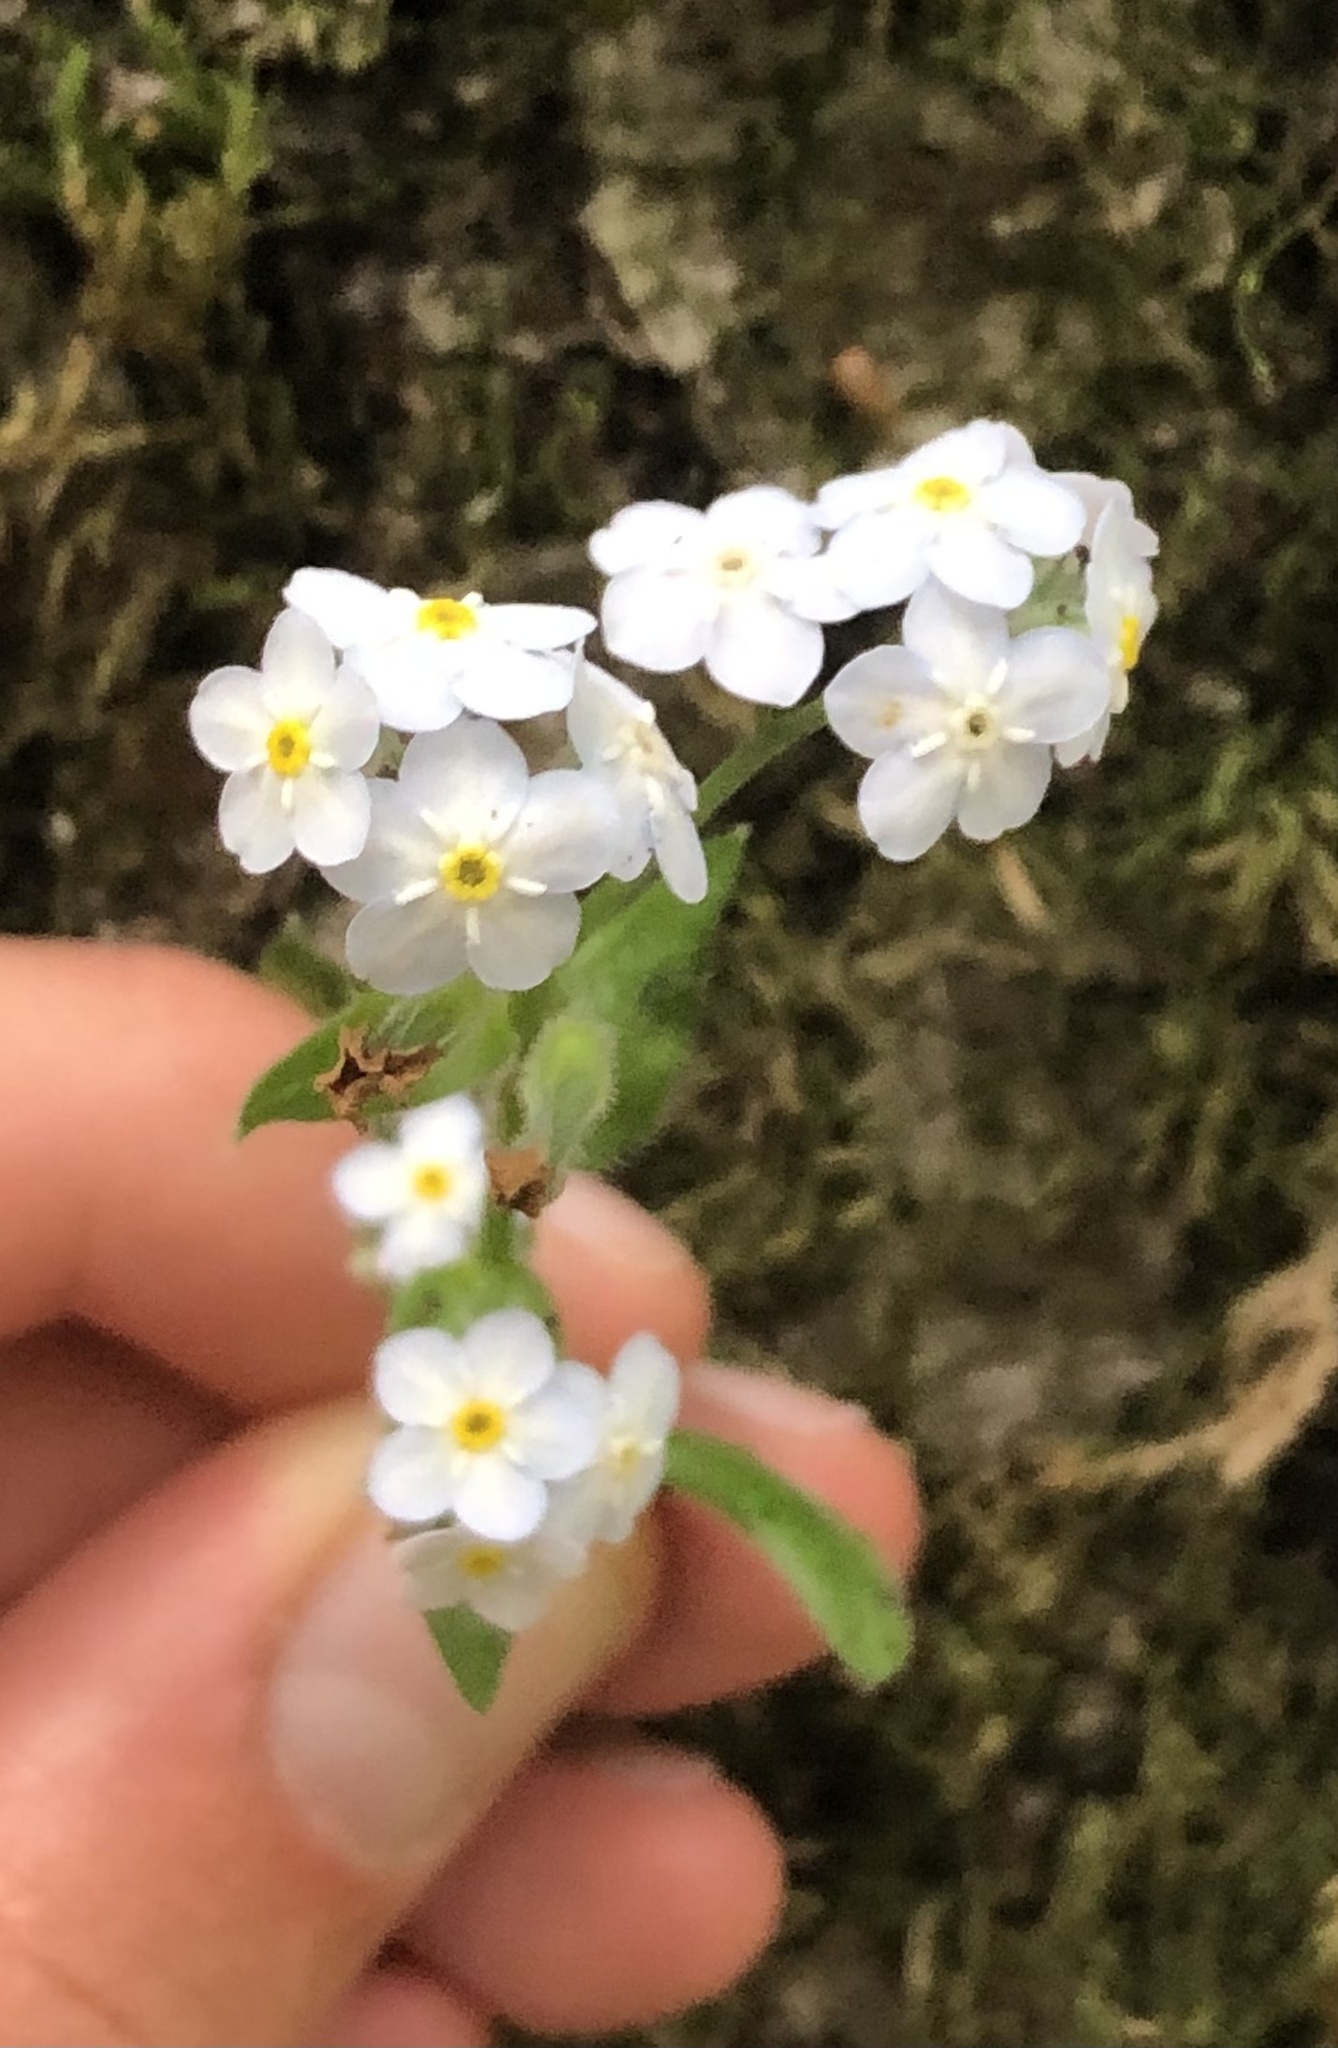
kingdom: Plantae
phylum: Tracheophyta
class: Magnoliopsida
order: Boraginales
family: Boraginaceae
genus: Myosotis
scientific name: Myosotis latifolia
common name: Broadleaf forget-me-not
